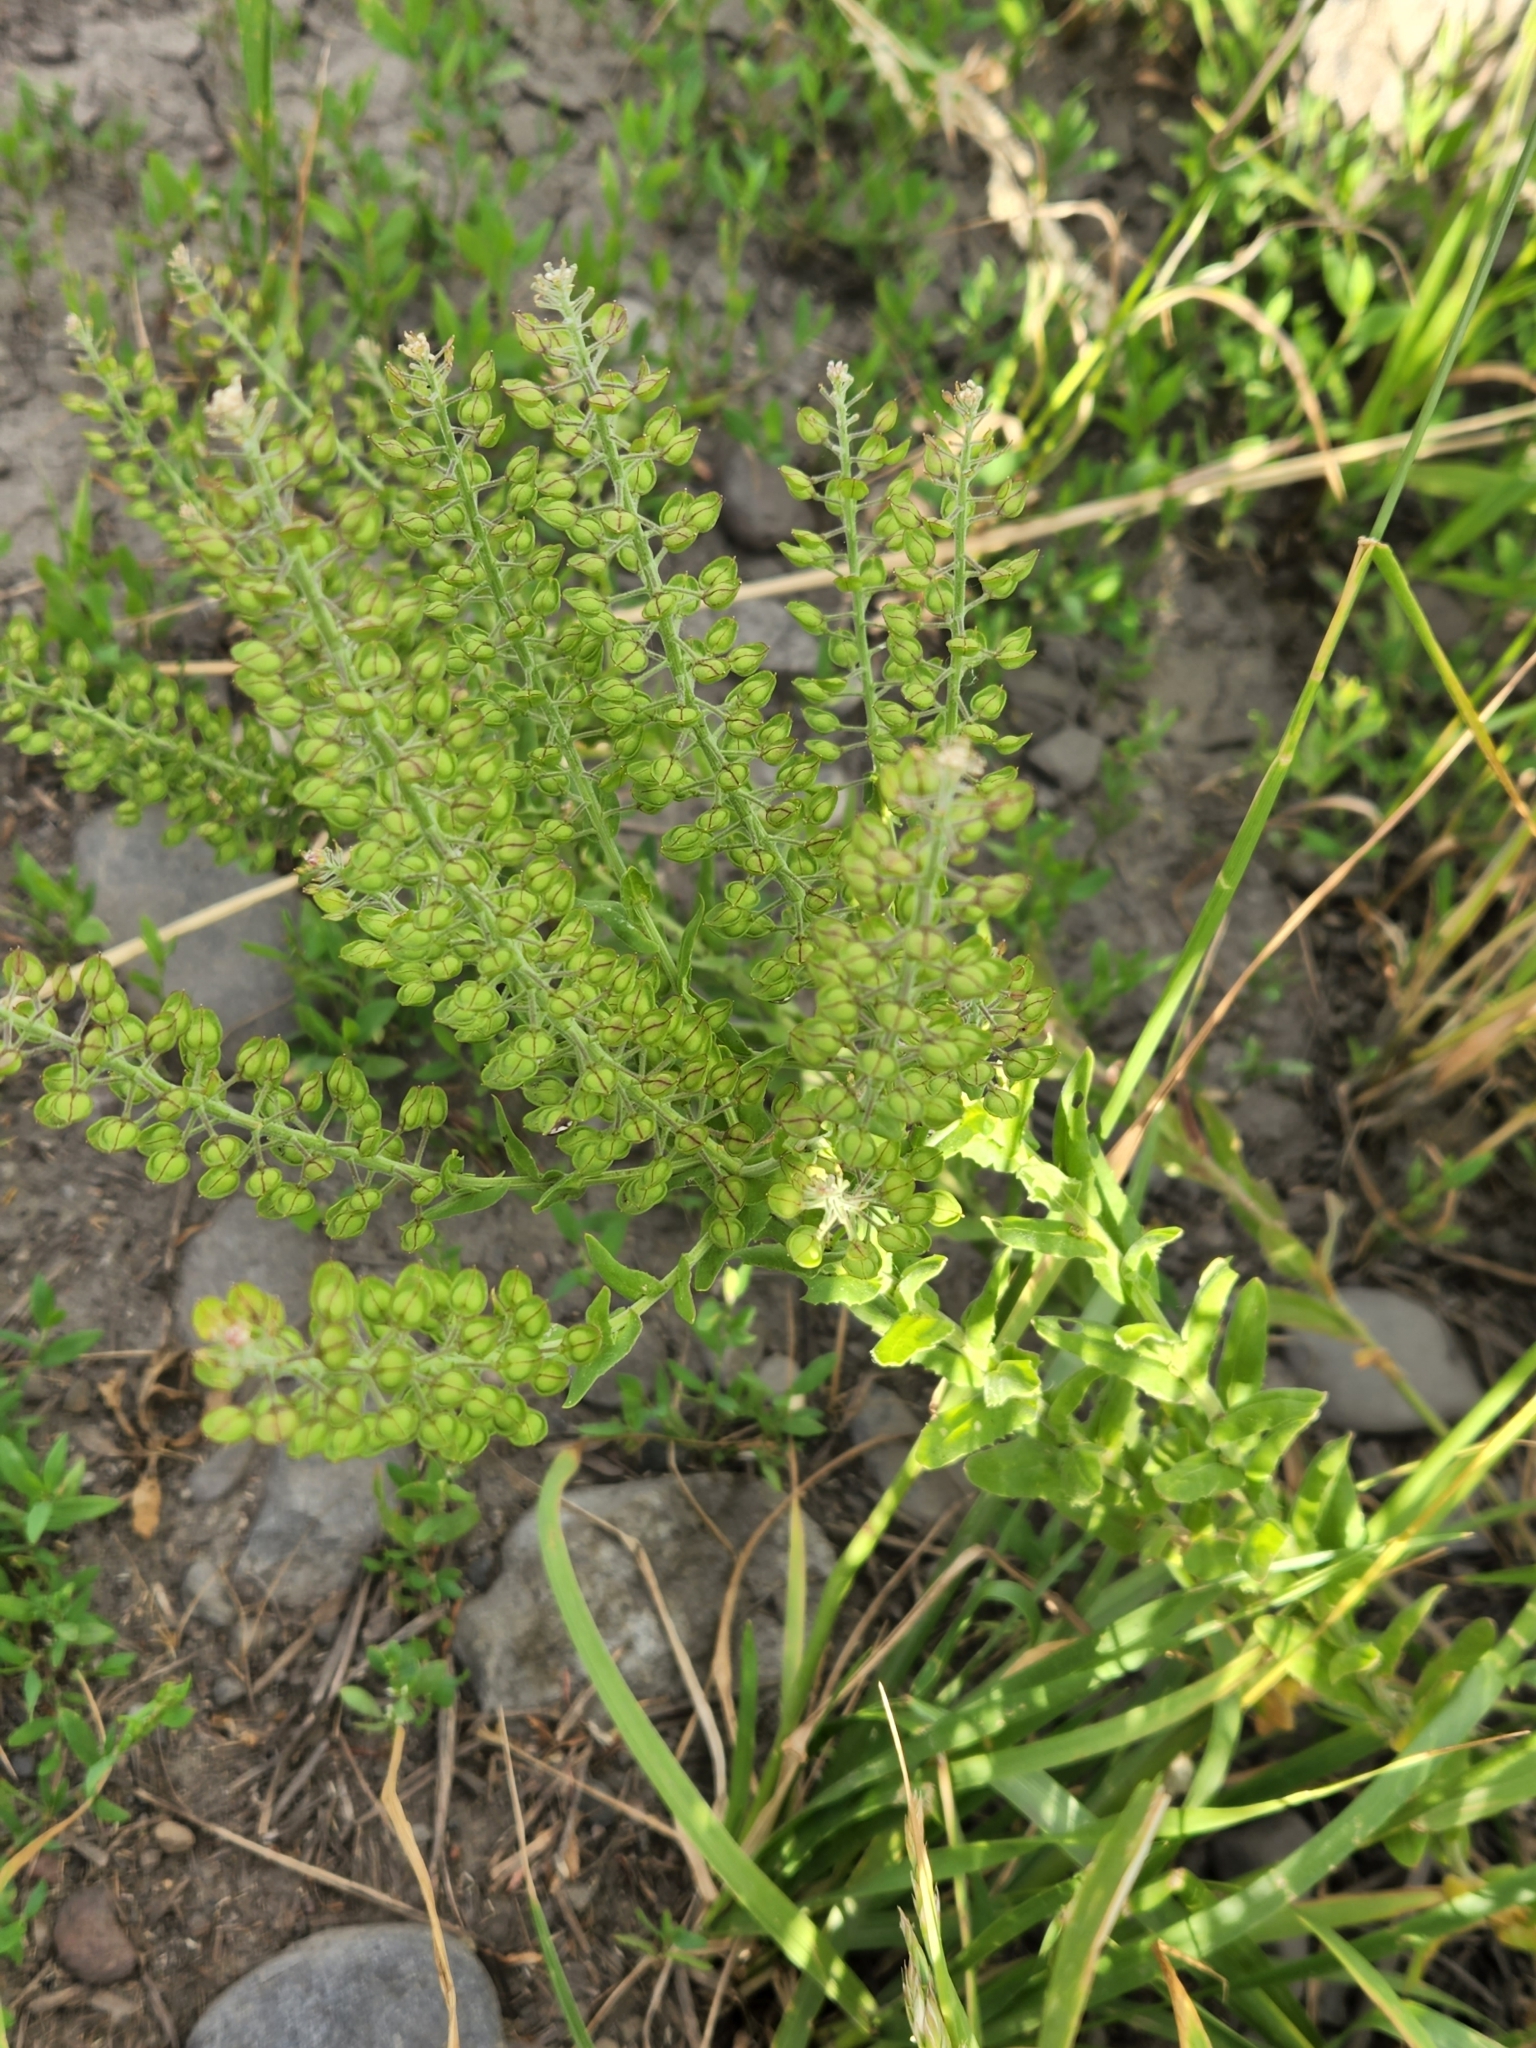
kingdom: Plantae
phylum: Tracheophyta
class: Magnoliopsida
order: Brassicales
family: Brassicaceae
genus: Lepidium
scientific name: Lepidium campestre
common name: Field pepperwort
